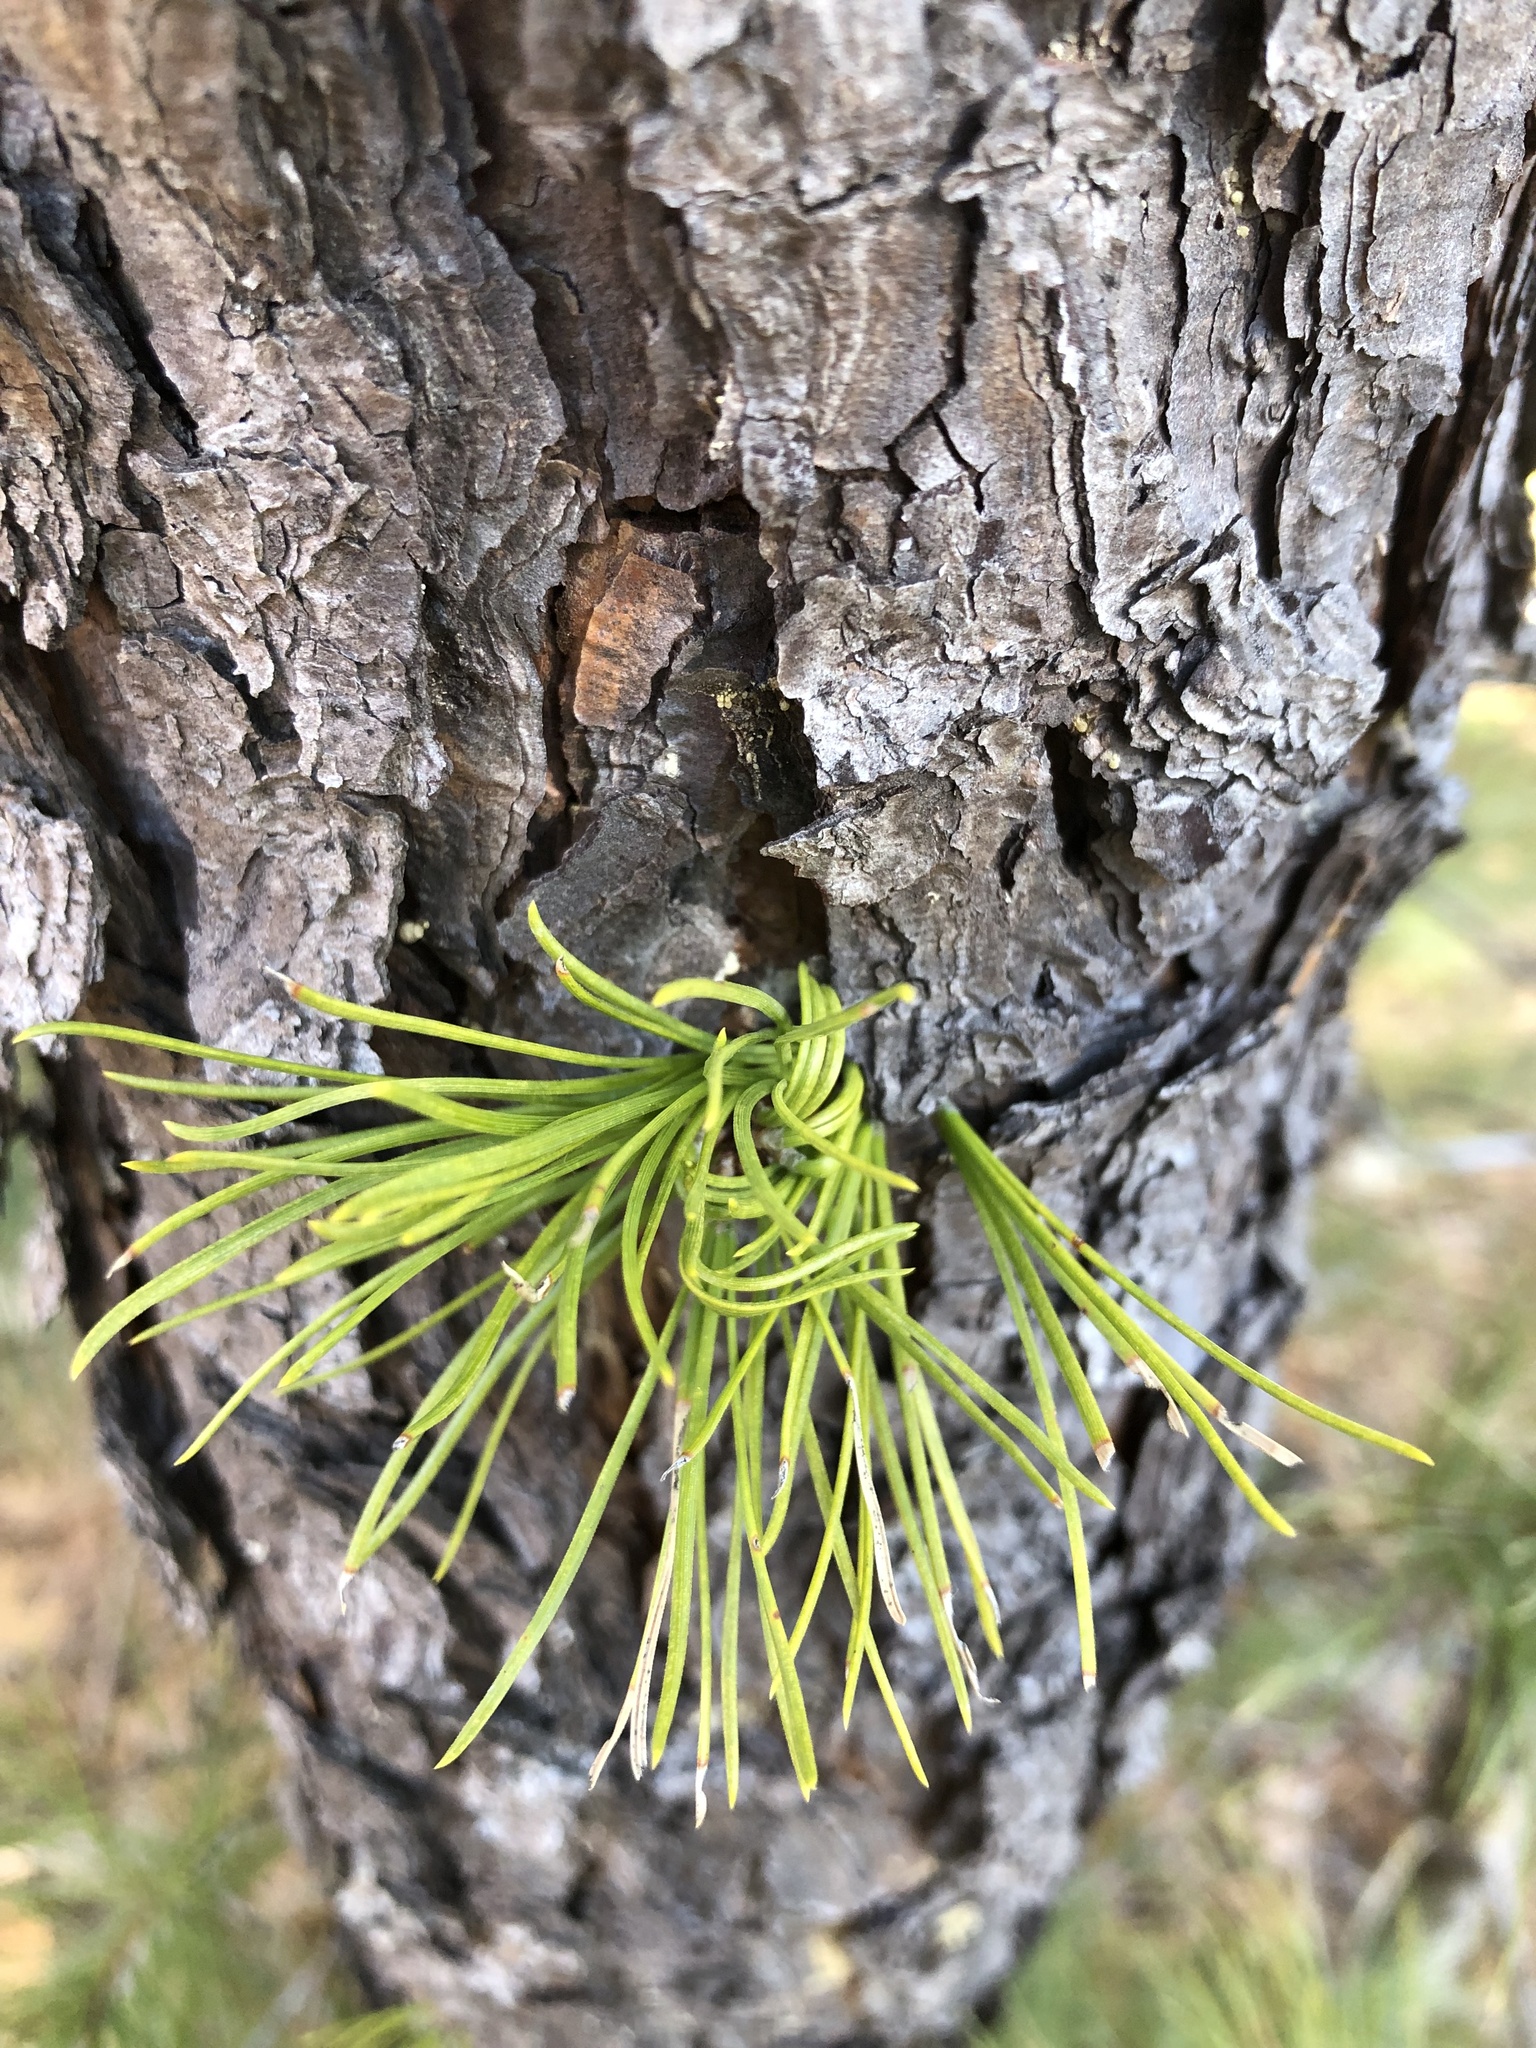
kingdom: Plantae
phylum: Tracheophyta
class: Pinopsida
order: Pinales
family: Pinaceae
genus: Pinus
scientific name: Pinus rigida
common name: Pitch pine
